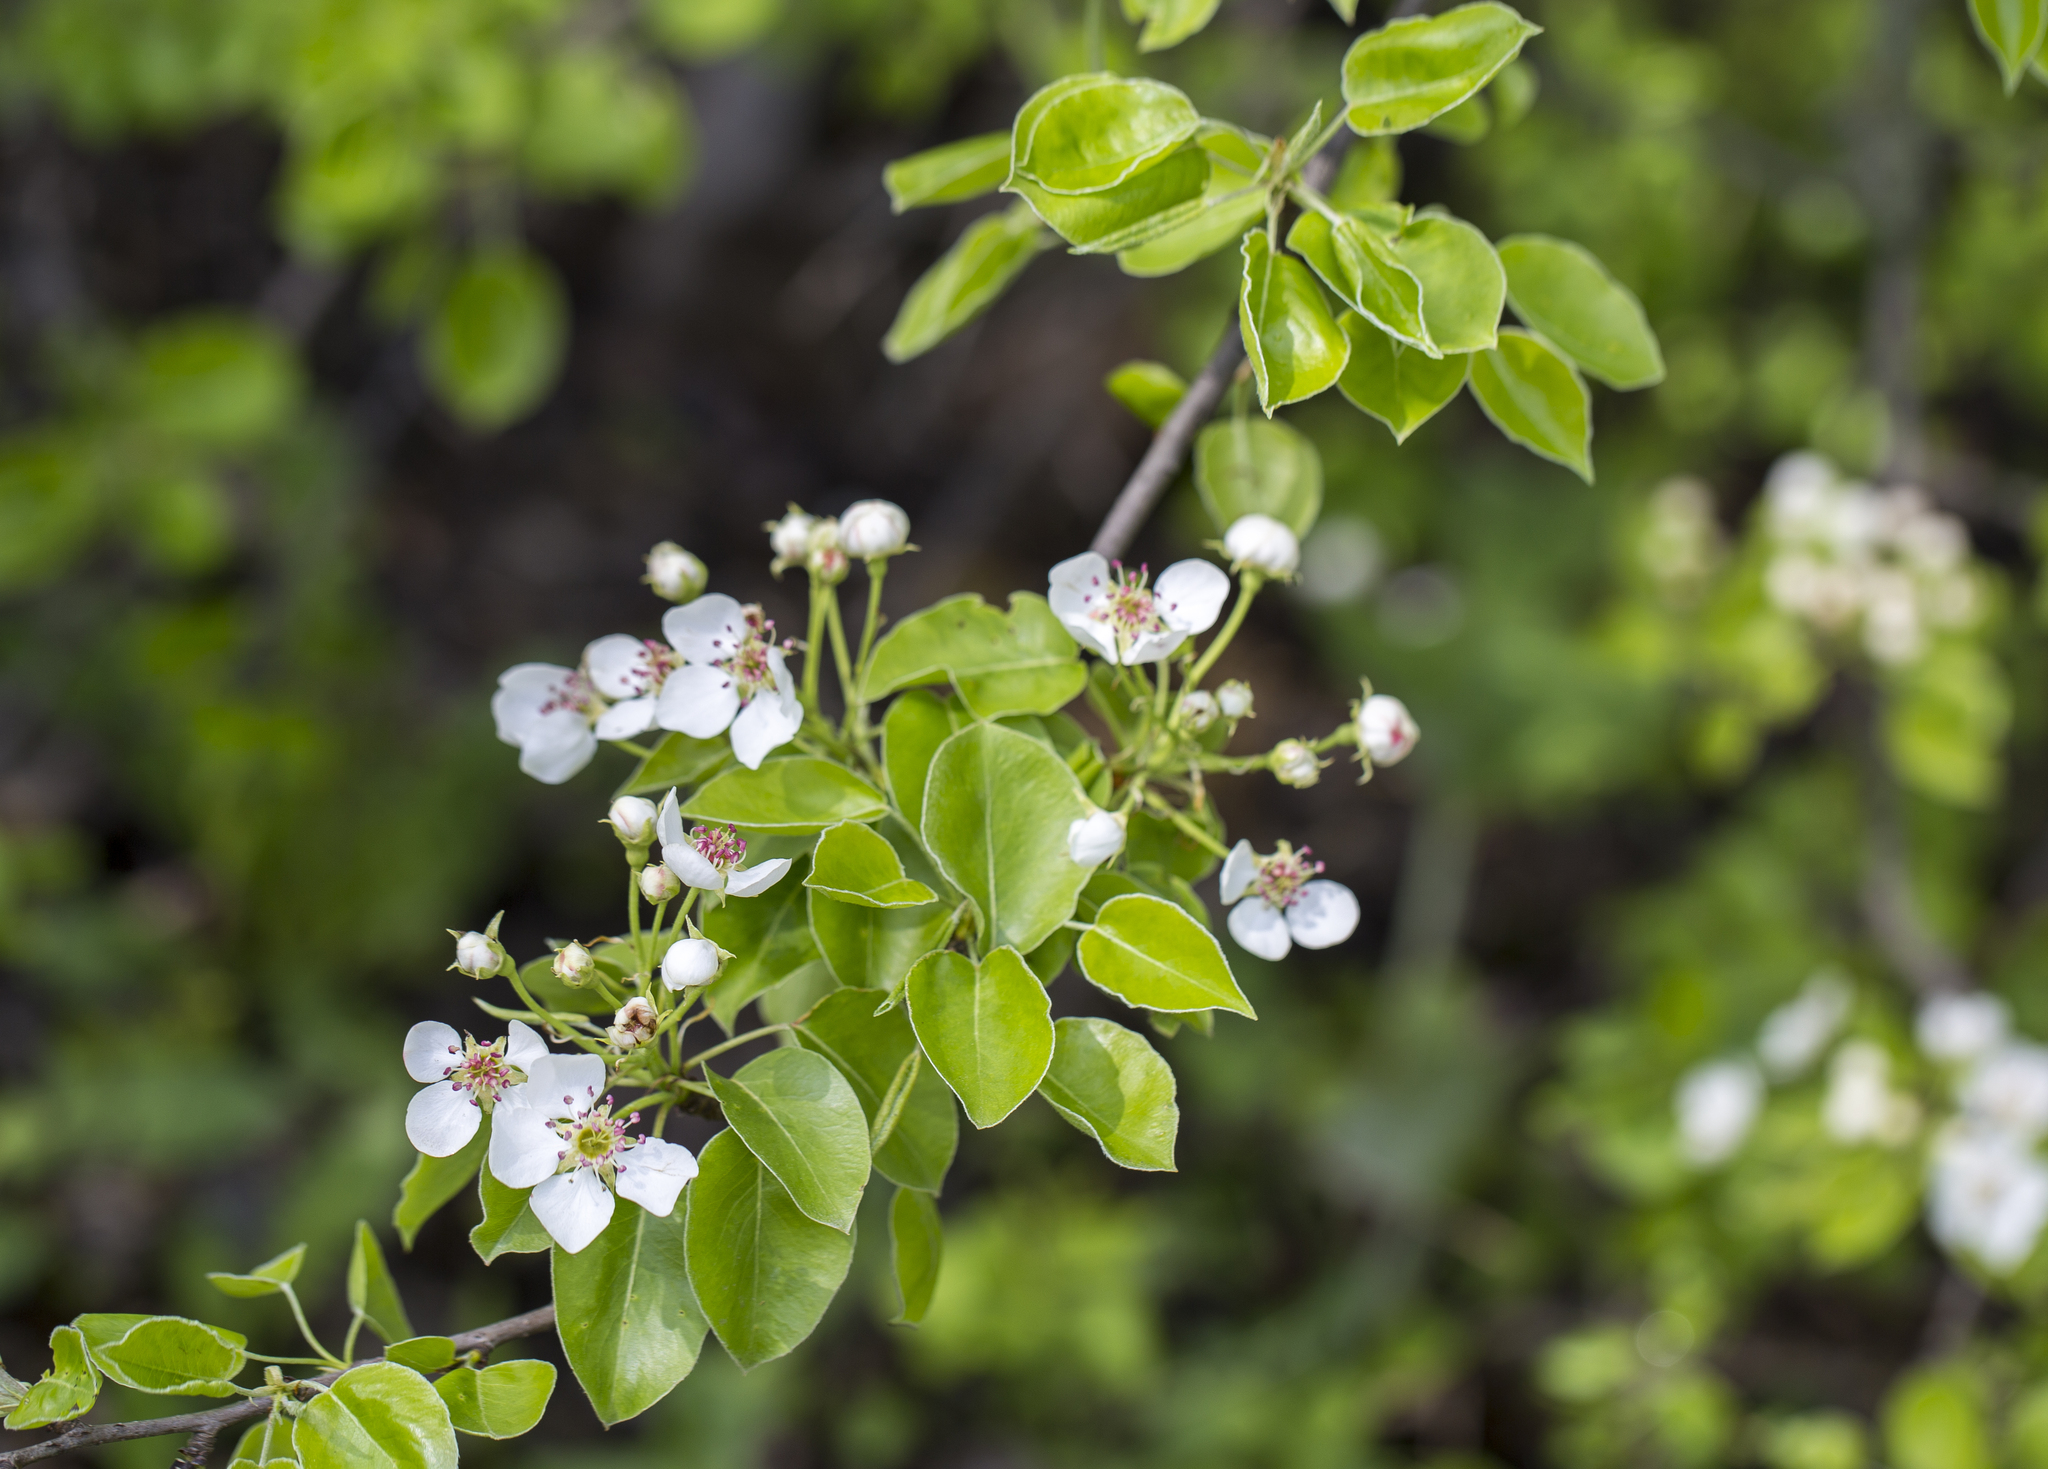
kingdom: Plantae
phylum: Tracheophyta
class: Magnoliopsida
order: Rosales
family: Rosaceae
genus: Pyrus
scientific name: Pyrus communis
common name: Pear
